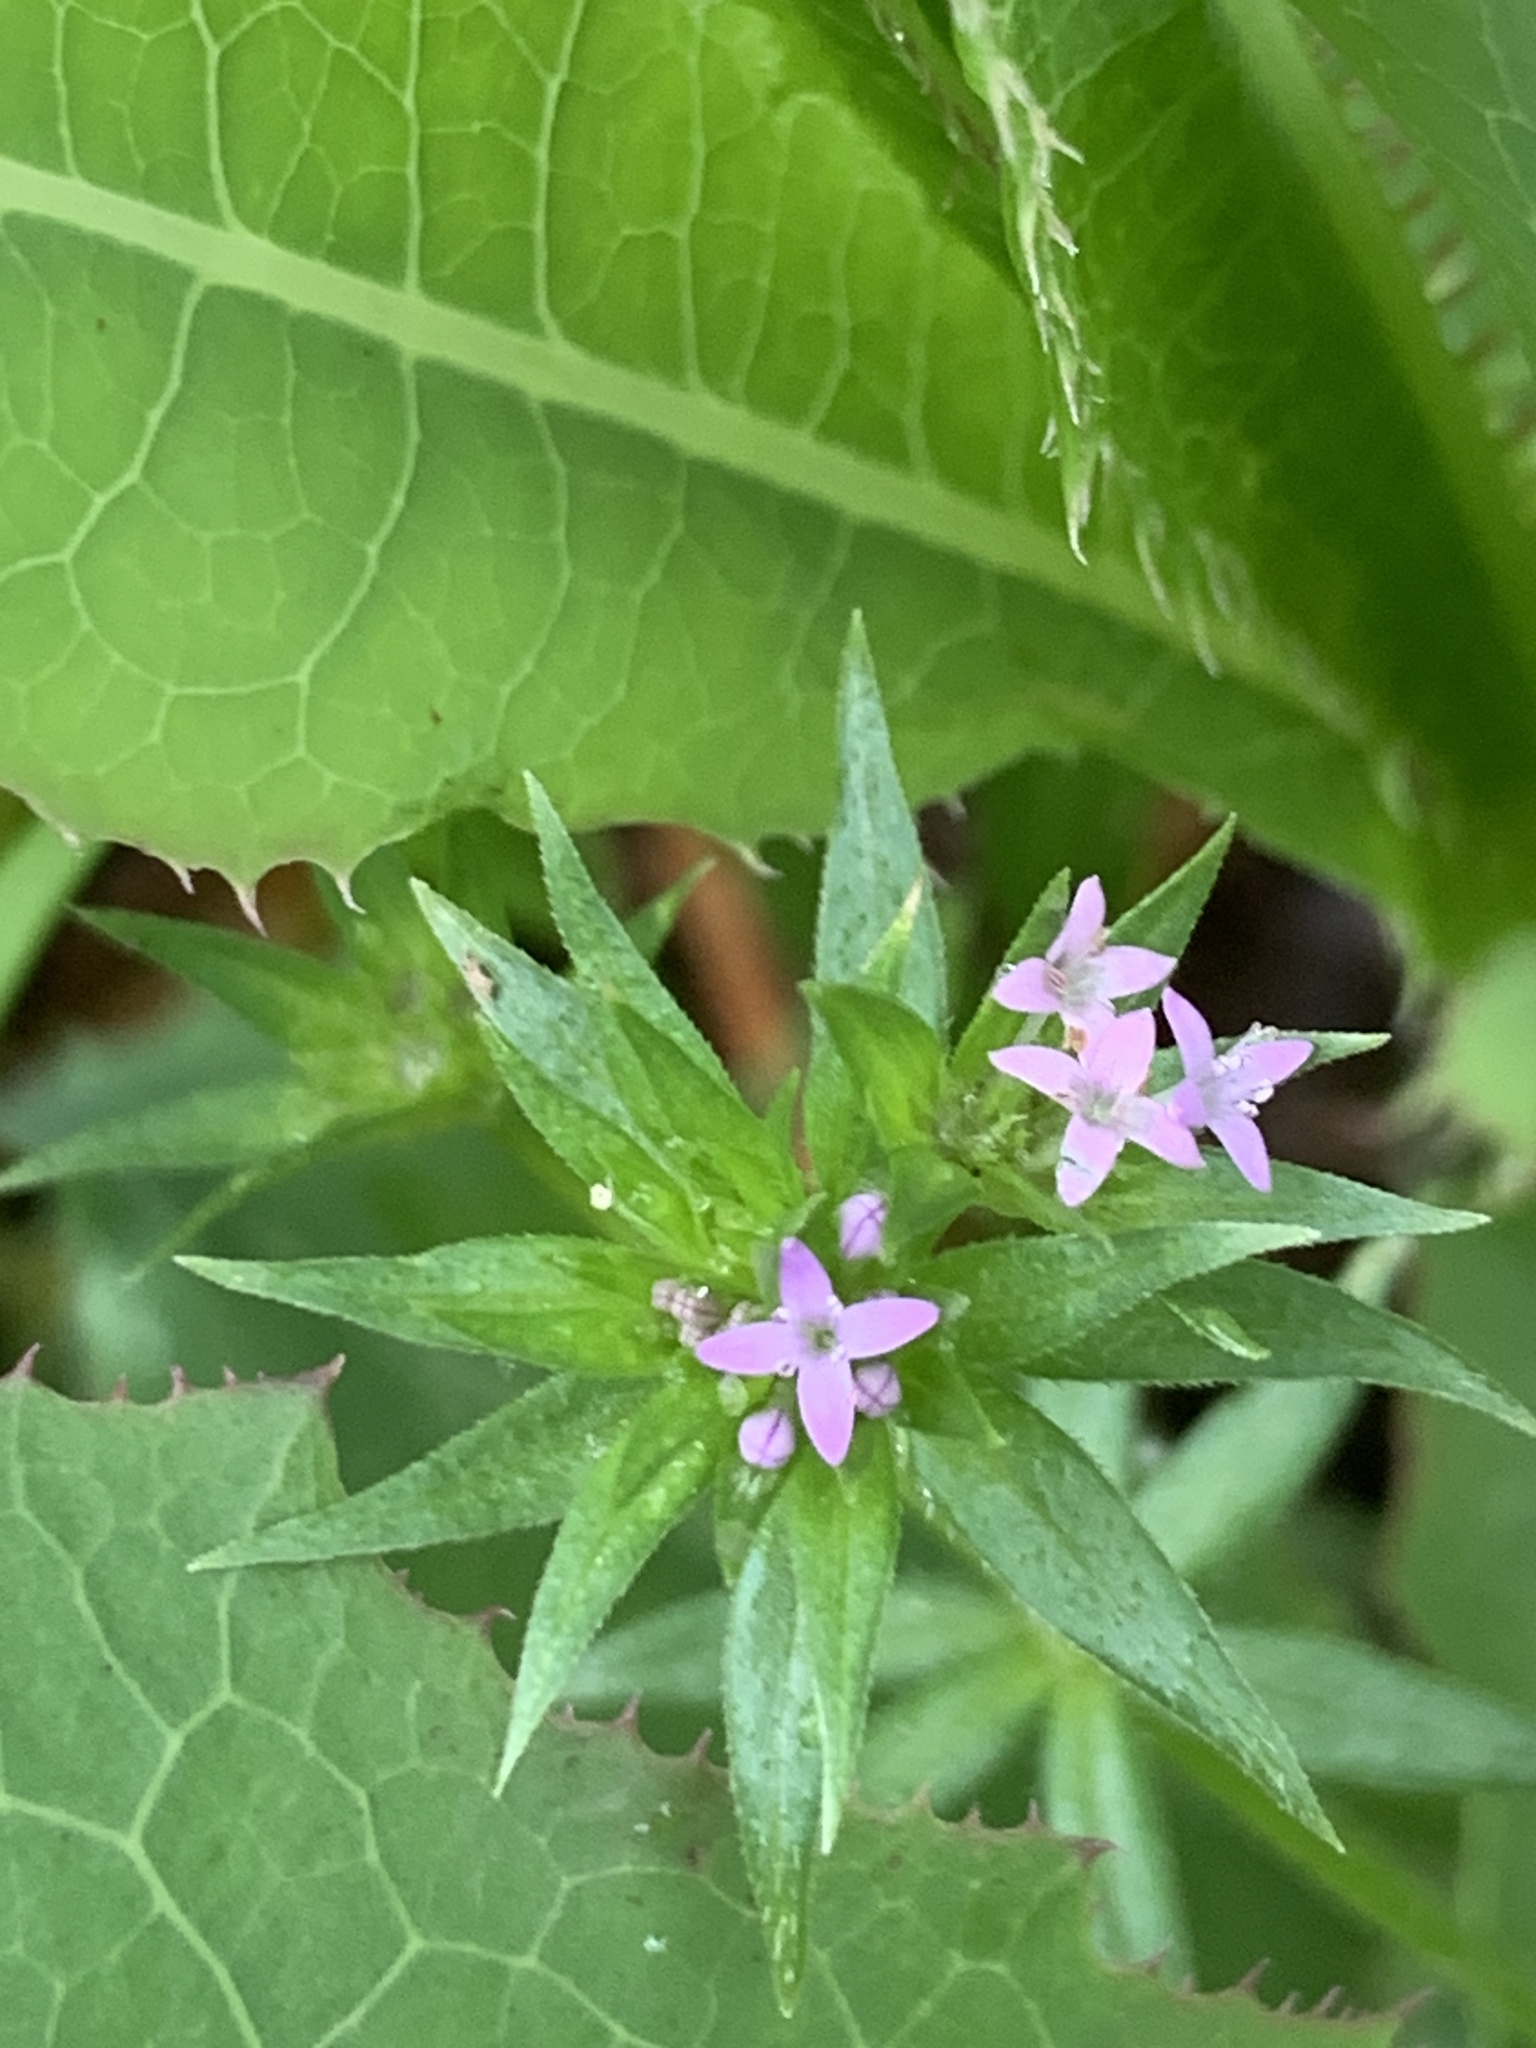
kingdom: Plantae
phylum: Tracheophyta
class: Magnoliopsida
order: Gentianales
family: Rubiaceae
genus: Sherardia
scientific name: Sherardia arvensis
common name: Field madder
